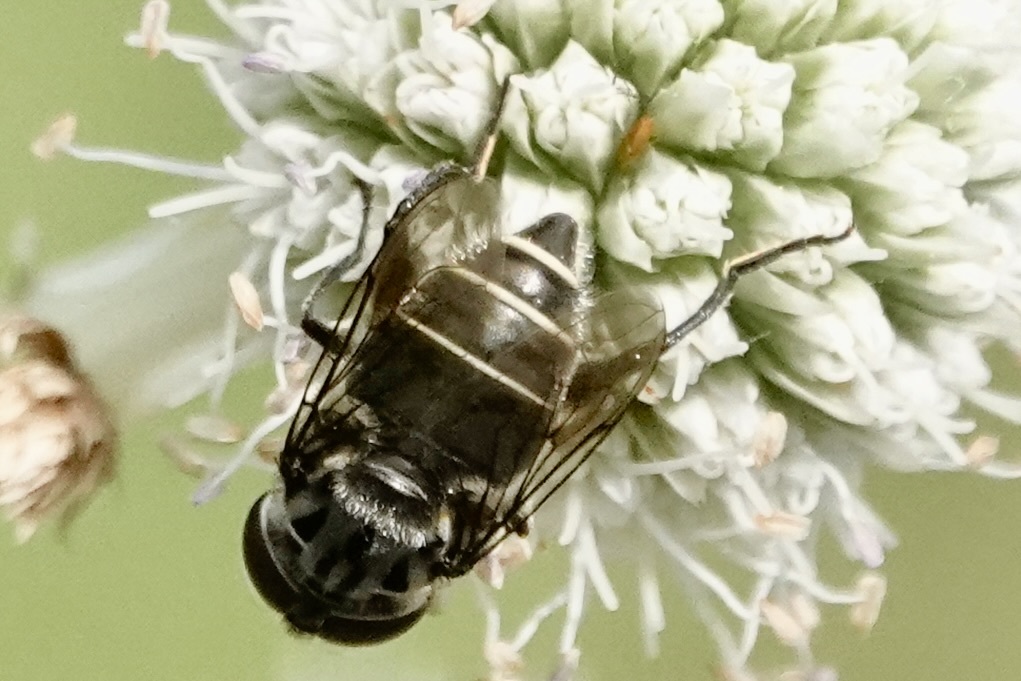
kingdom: Animalia
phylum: Arthropoda
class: Insecta
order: Diptera
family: Syrphidae
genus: Palpada
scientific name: Palpada furcata
